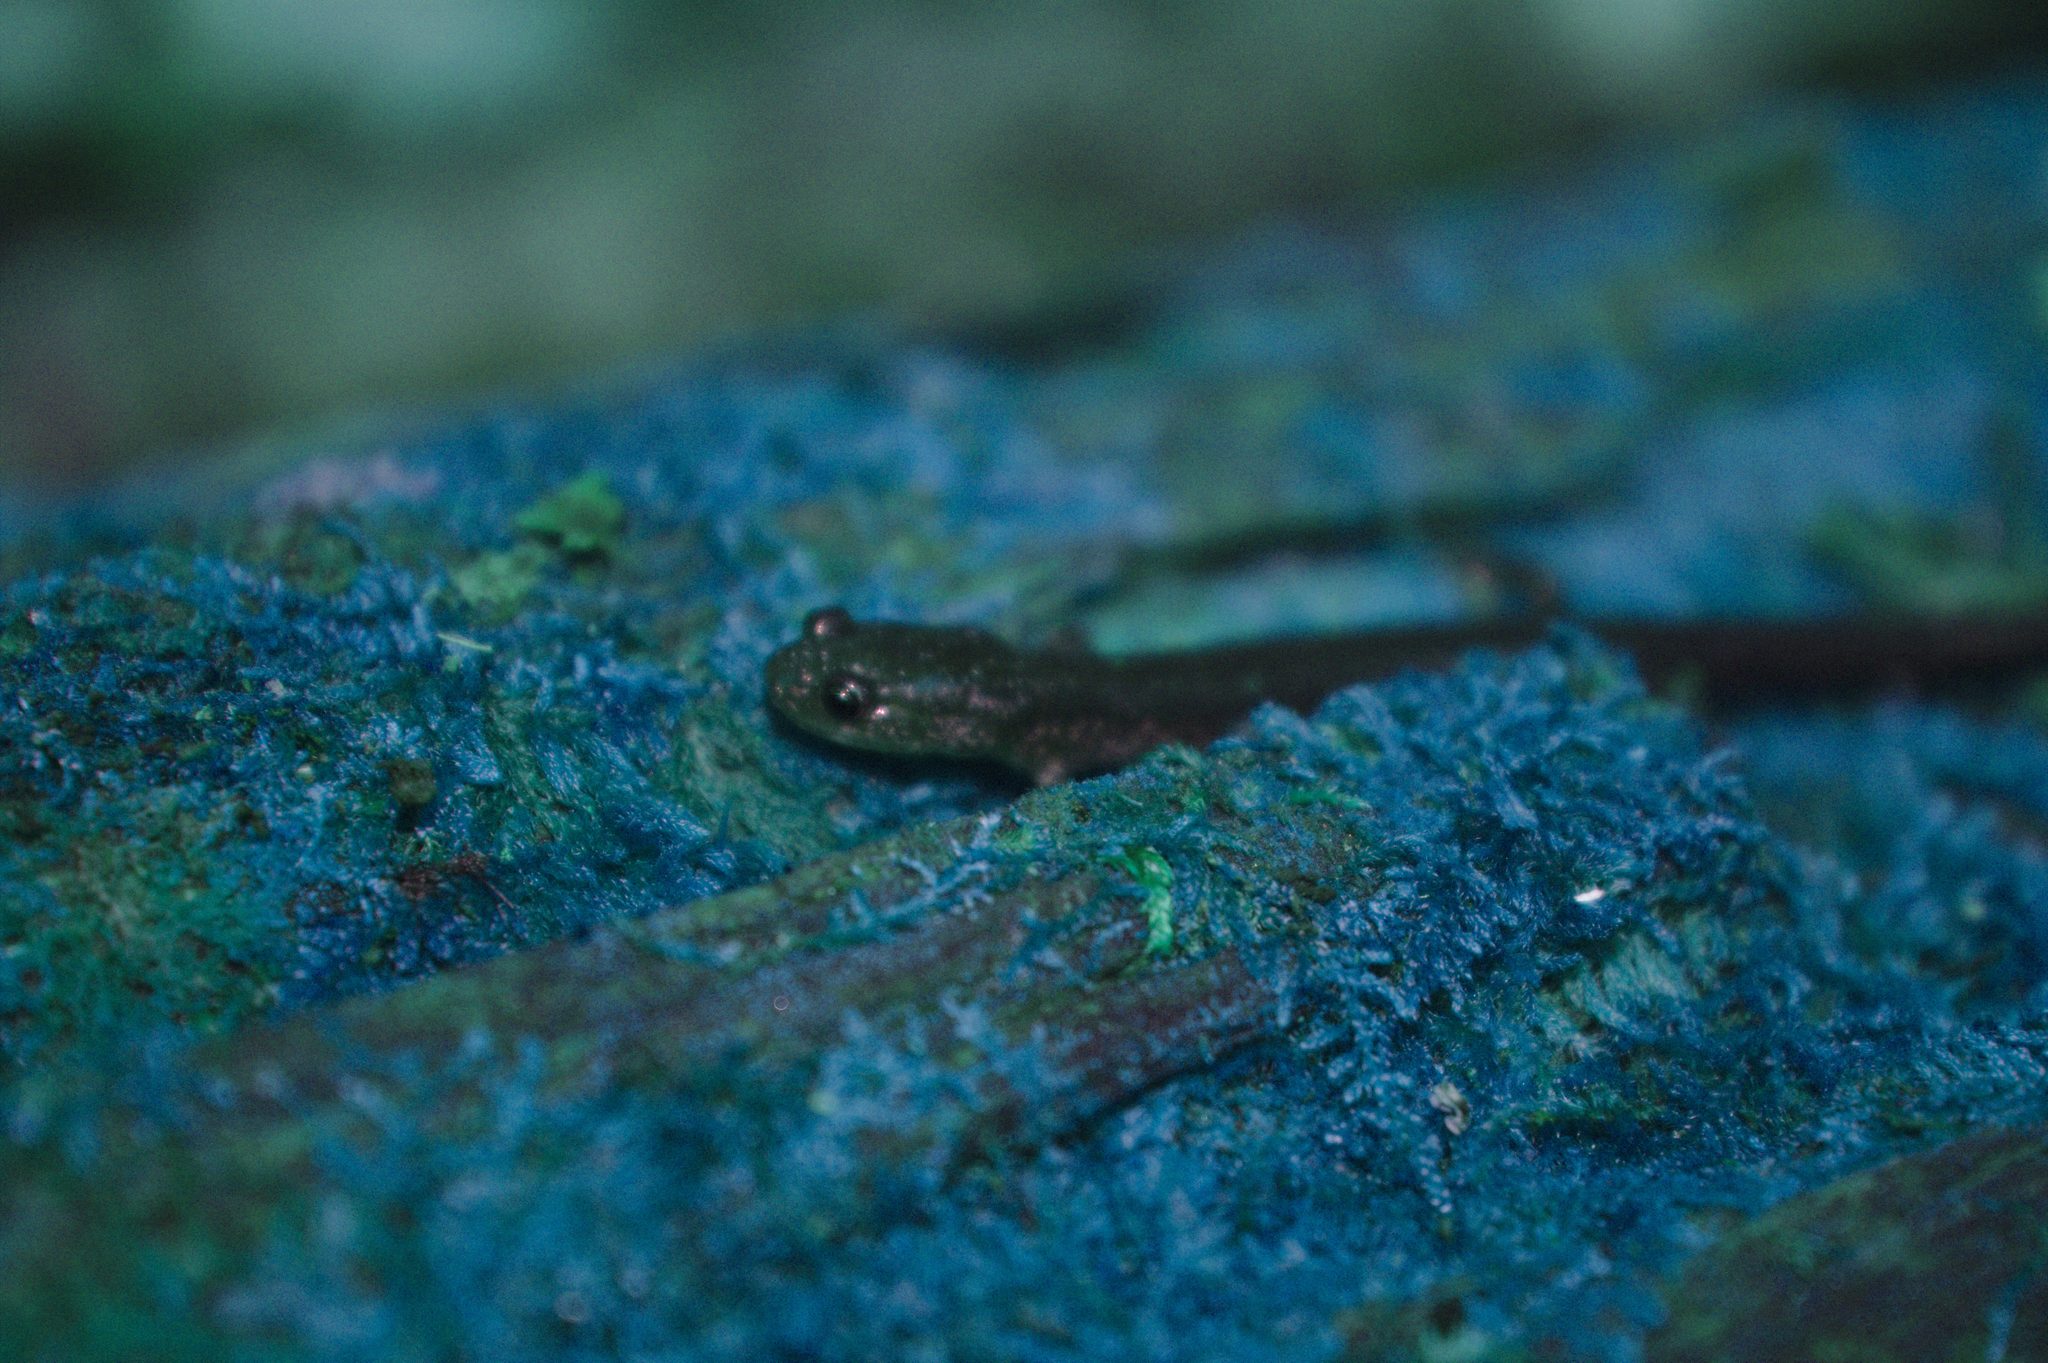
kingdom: Animalia
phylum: Chordata
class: Amphibia
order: Caudata
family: Plethodontidae
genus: Plethodon
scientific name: Plethodon cinereus
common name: Redback salamander
